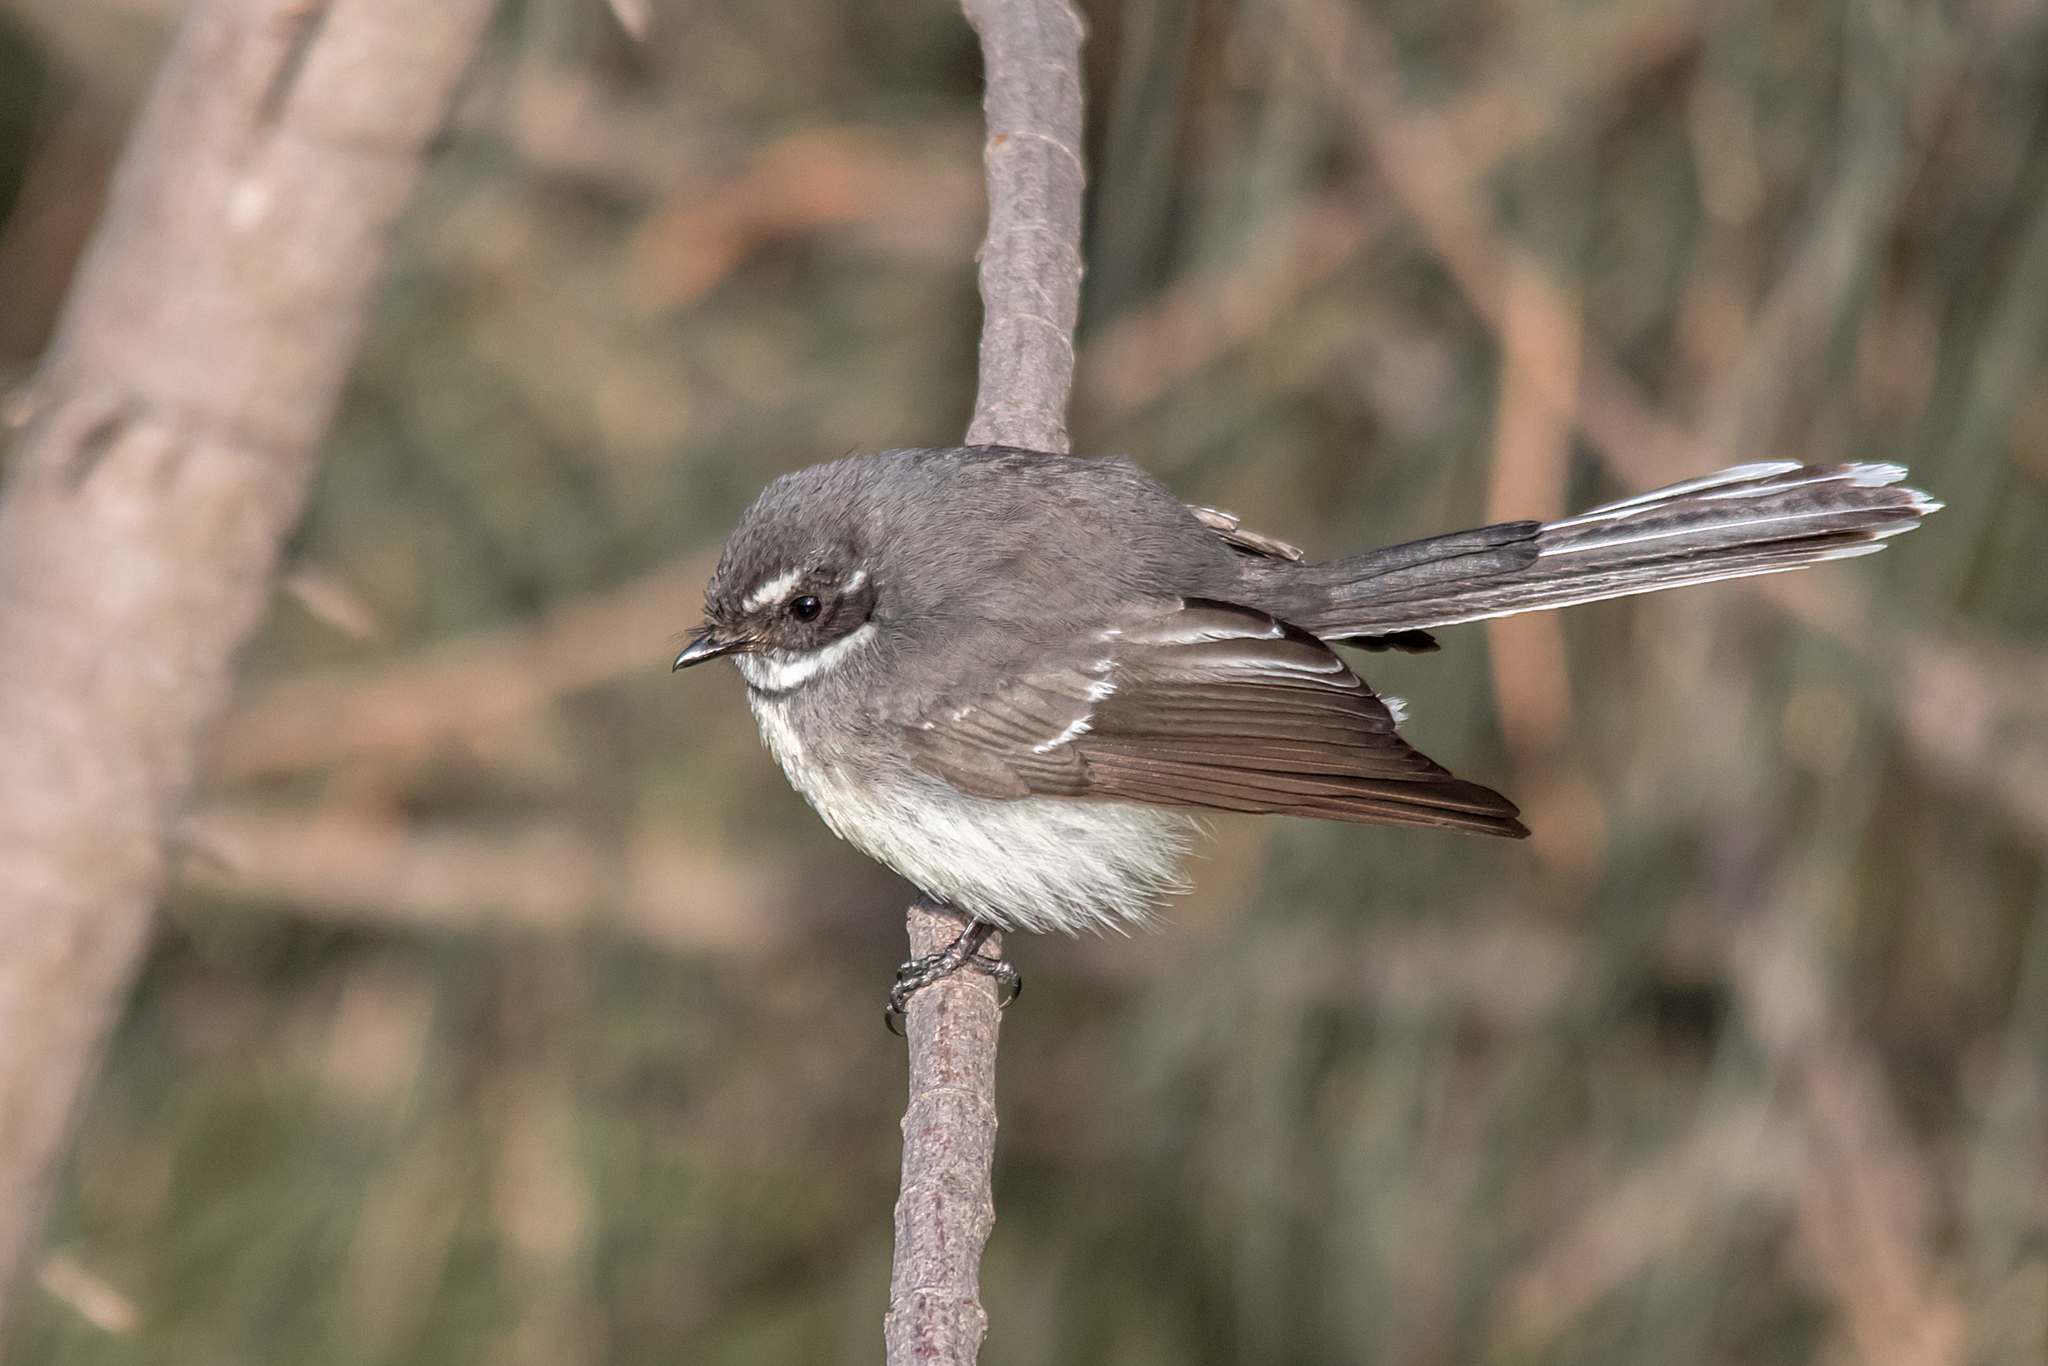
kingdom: Animalia
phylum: Chordata
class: Aves
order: Passeriformes
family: Rhipiduridae
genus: Rhipidura
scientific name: Rhipidura albiscapa
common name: Grey fantail
